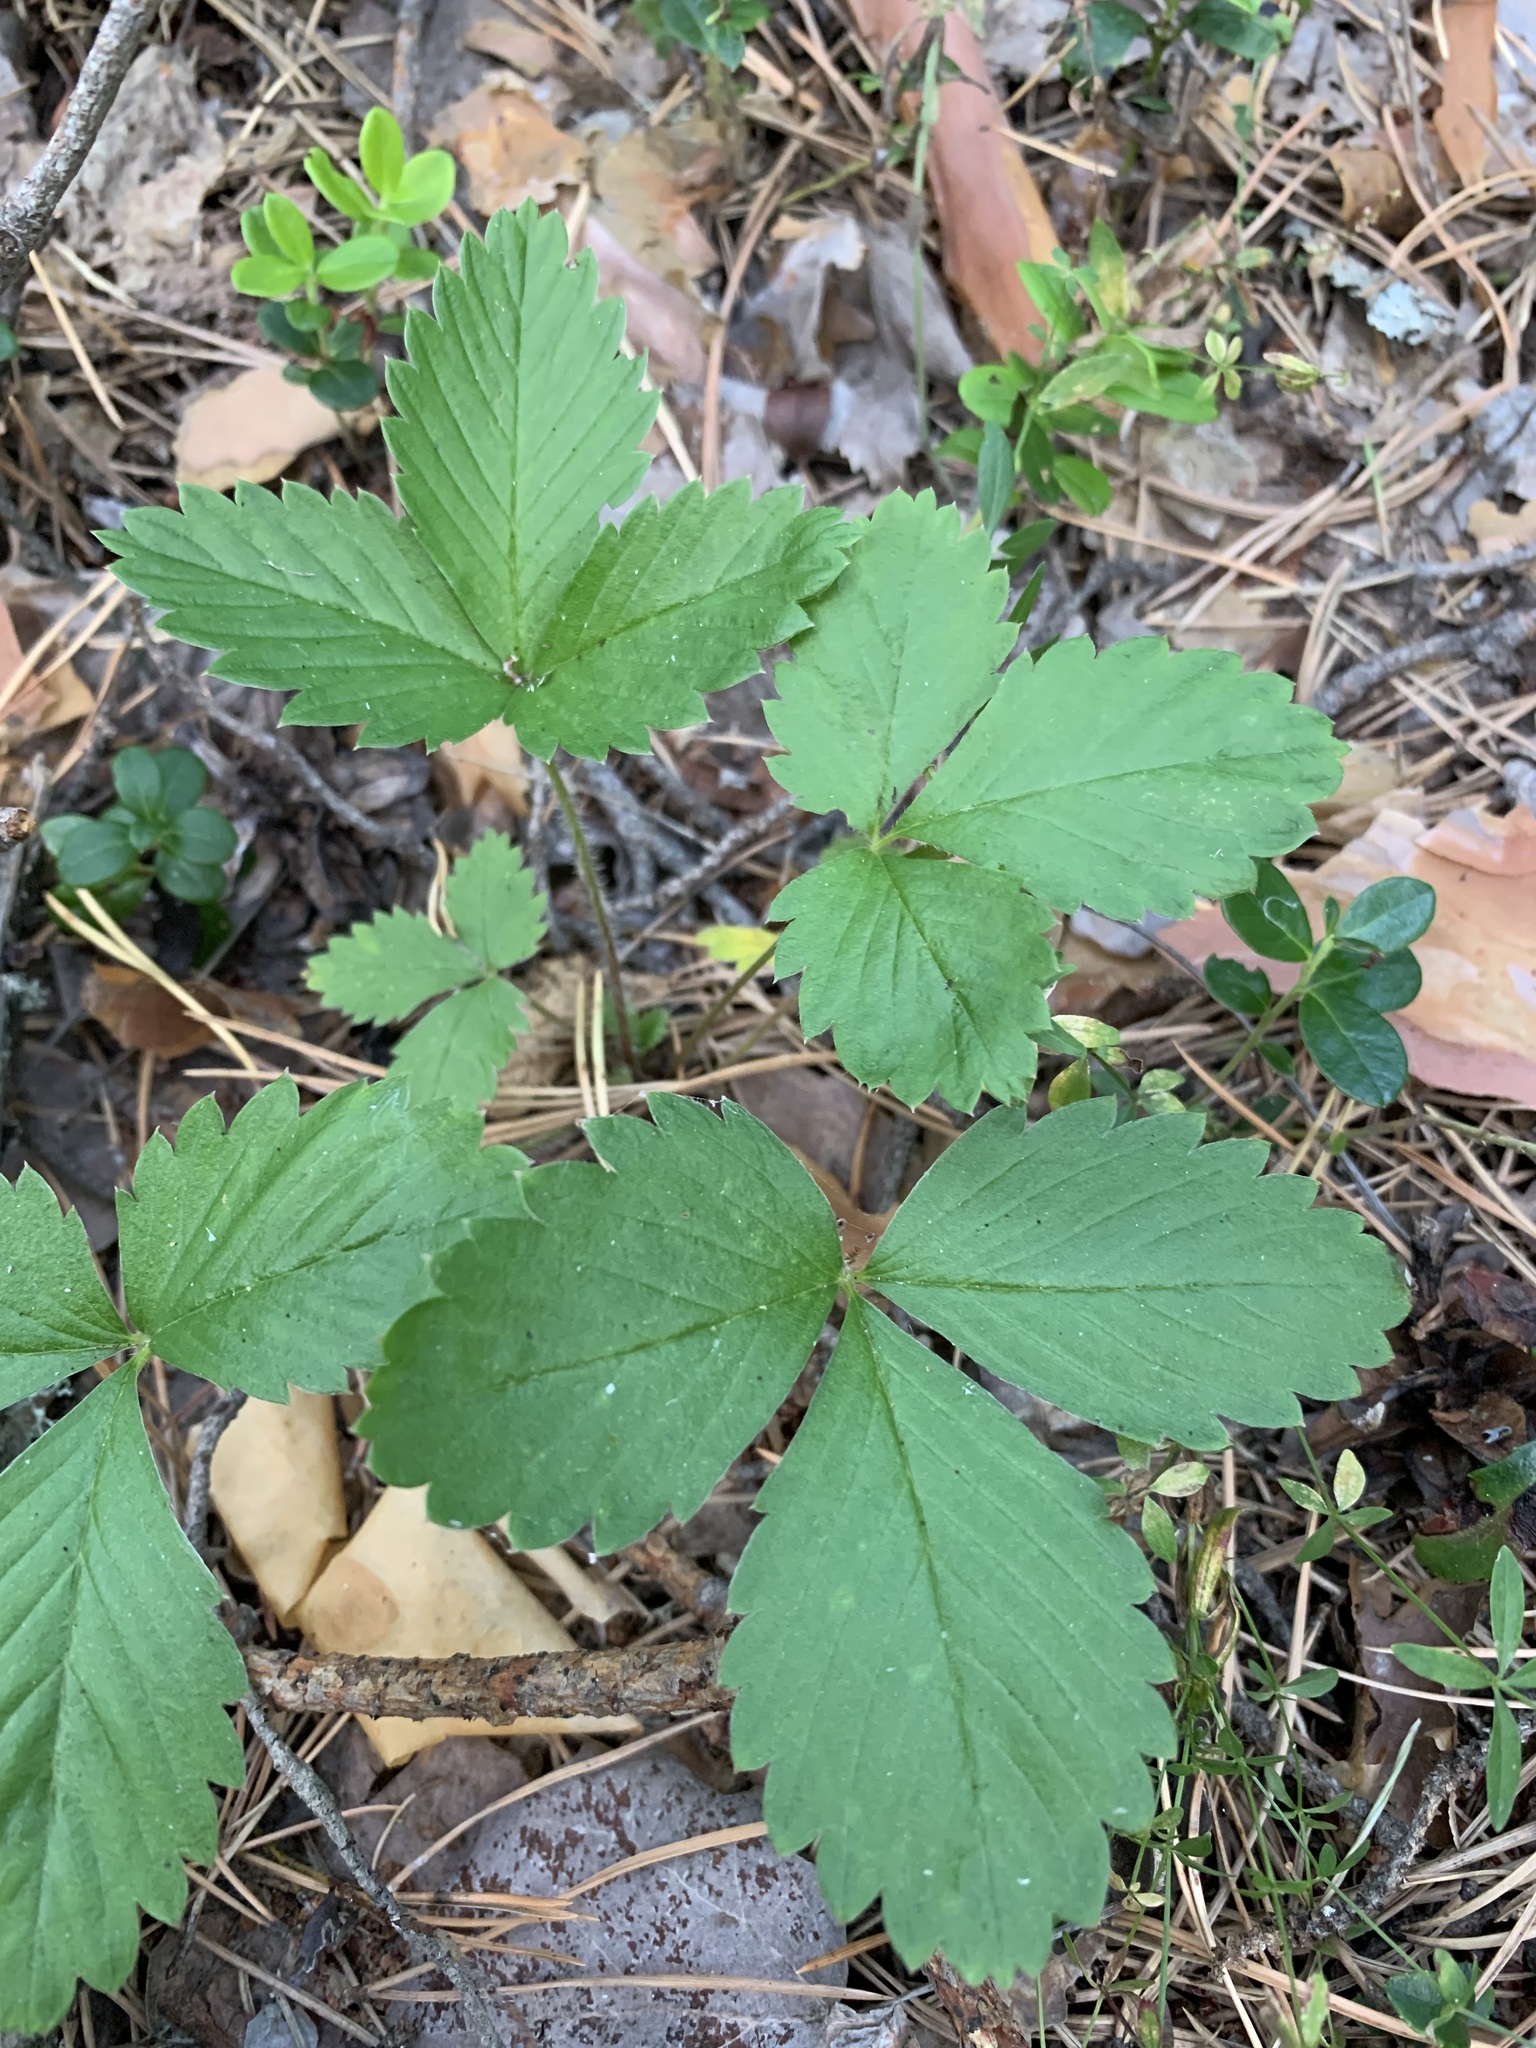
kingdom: Plantae
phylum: Tracheophyta
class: Magnoliopsida
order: Rosales
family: Rosaceae
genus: Fragaria
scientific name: Fragaria vesca
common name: Wild strawberry
